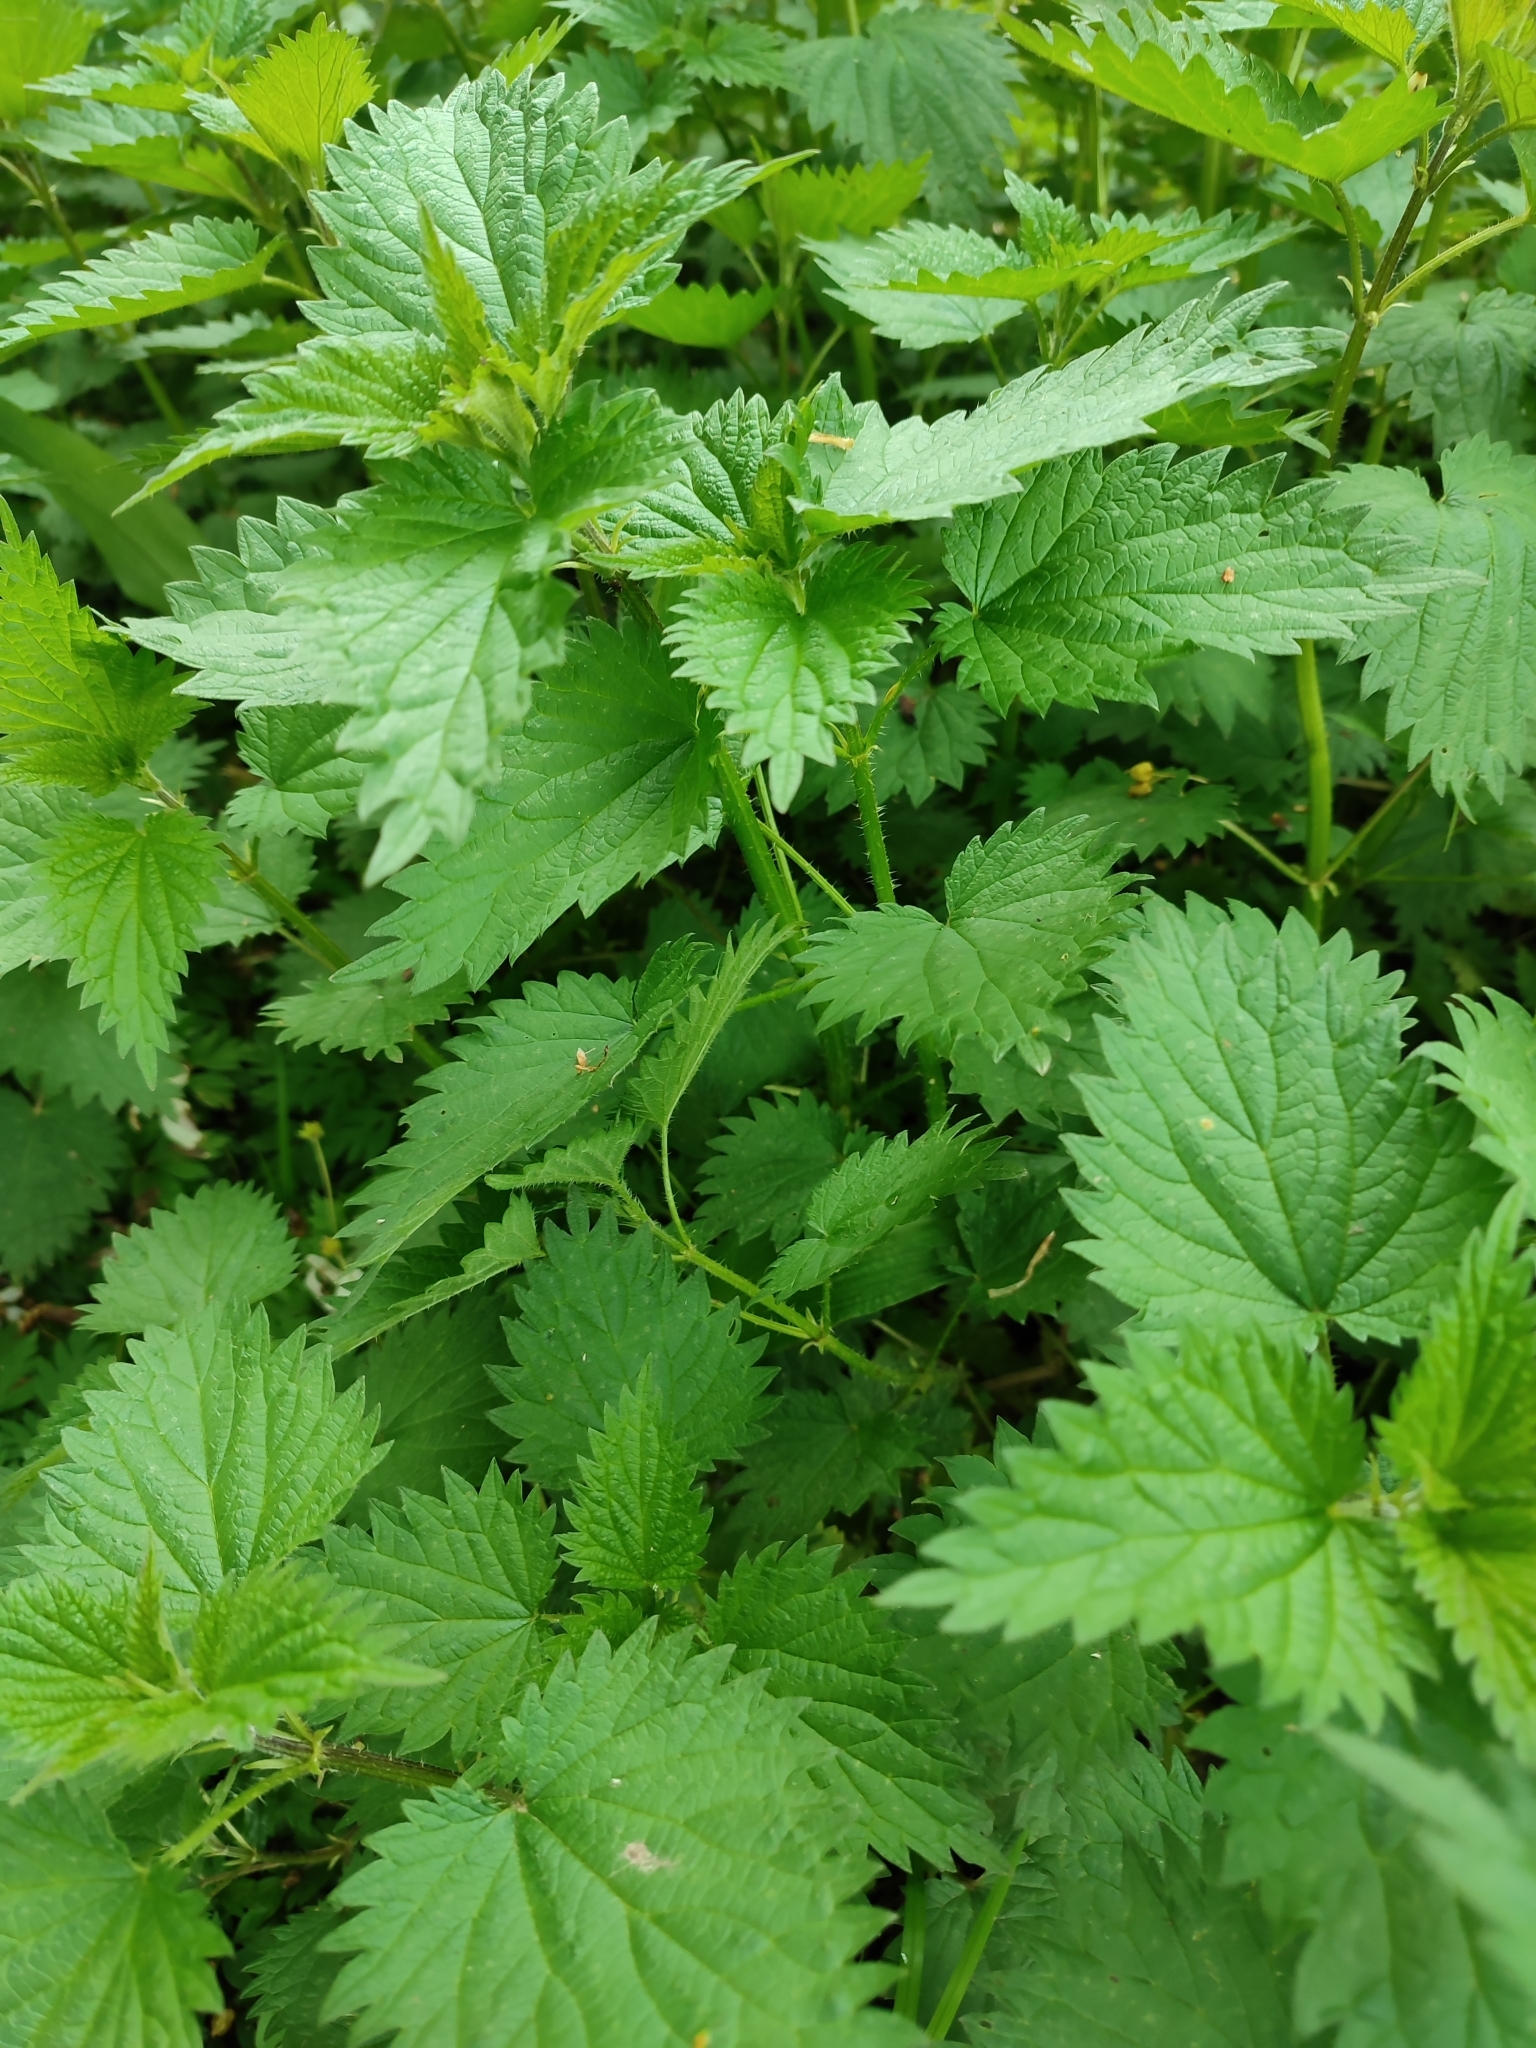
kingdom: Plantae
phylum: Tracheophyta
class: Magnoliopsida
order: Rosales
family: Urticaceae
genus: Urtica
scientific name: Urtica dioica
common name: Common nettle
